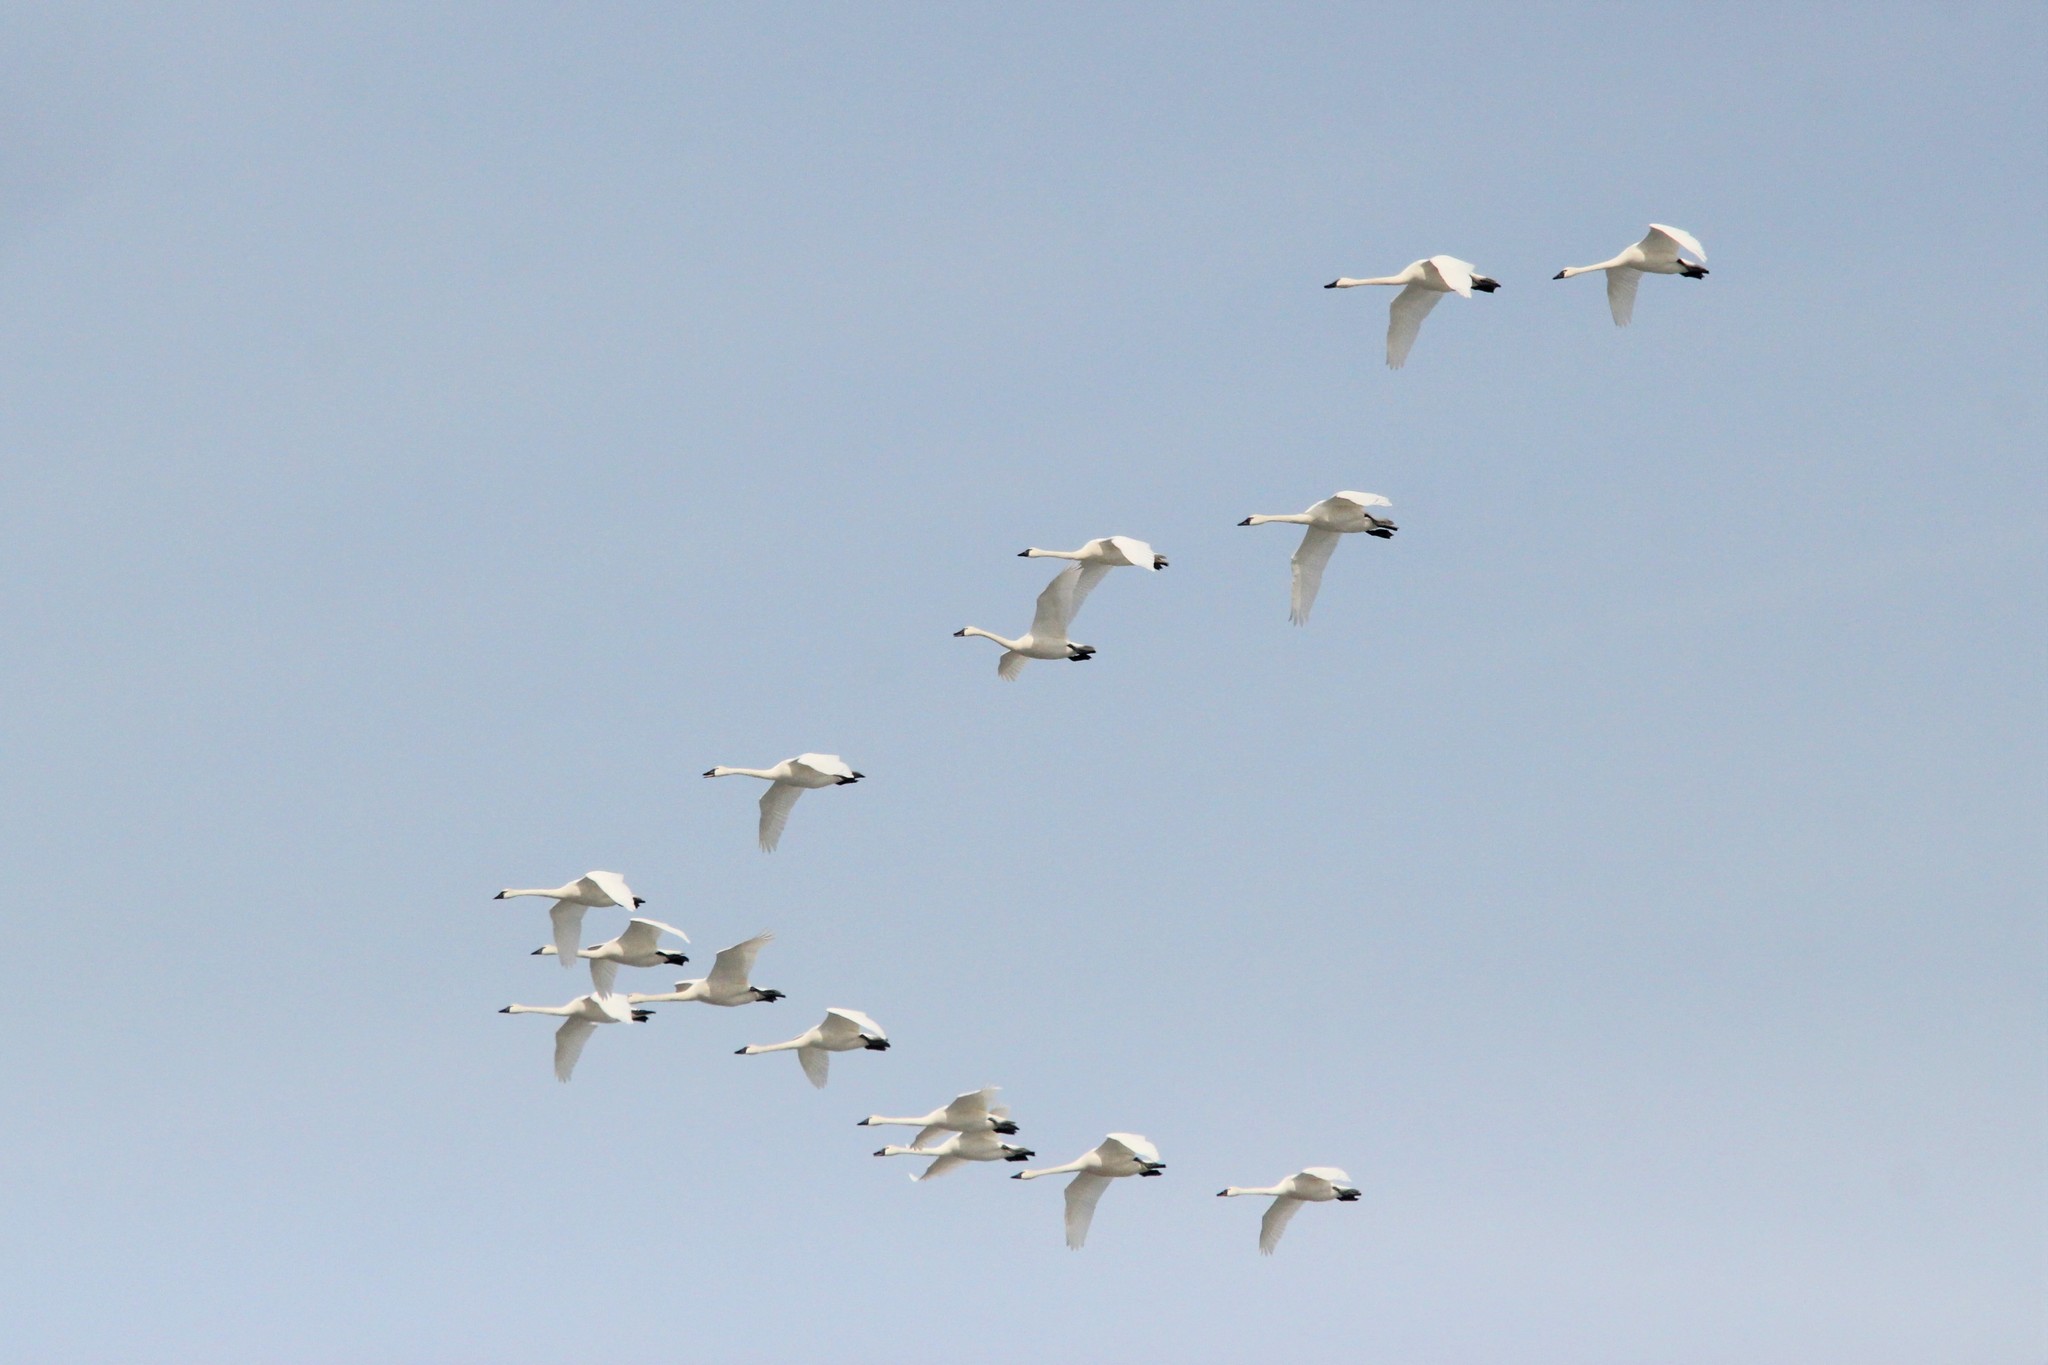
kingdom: Animalia
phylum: Chordata
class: Aves
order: Anseriformes
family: Anatidae
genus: Cygnus
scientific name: Cygnus columbianus
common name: Tundra swan
